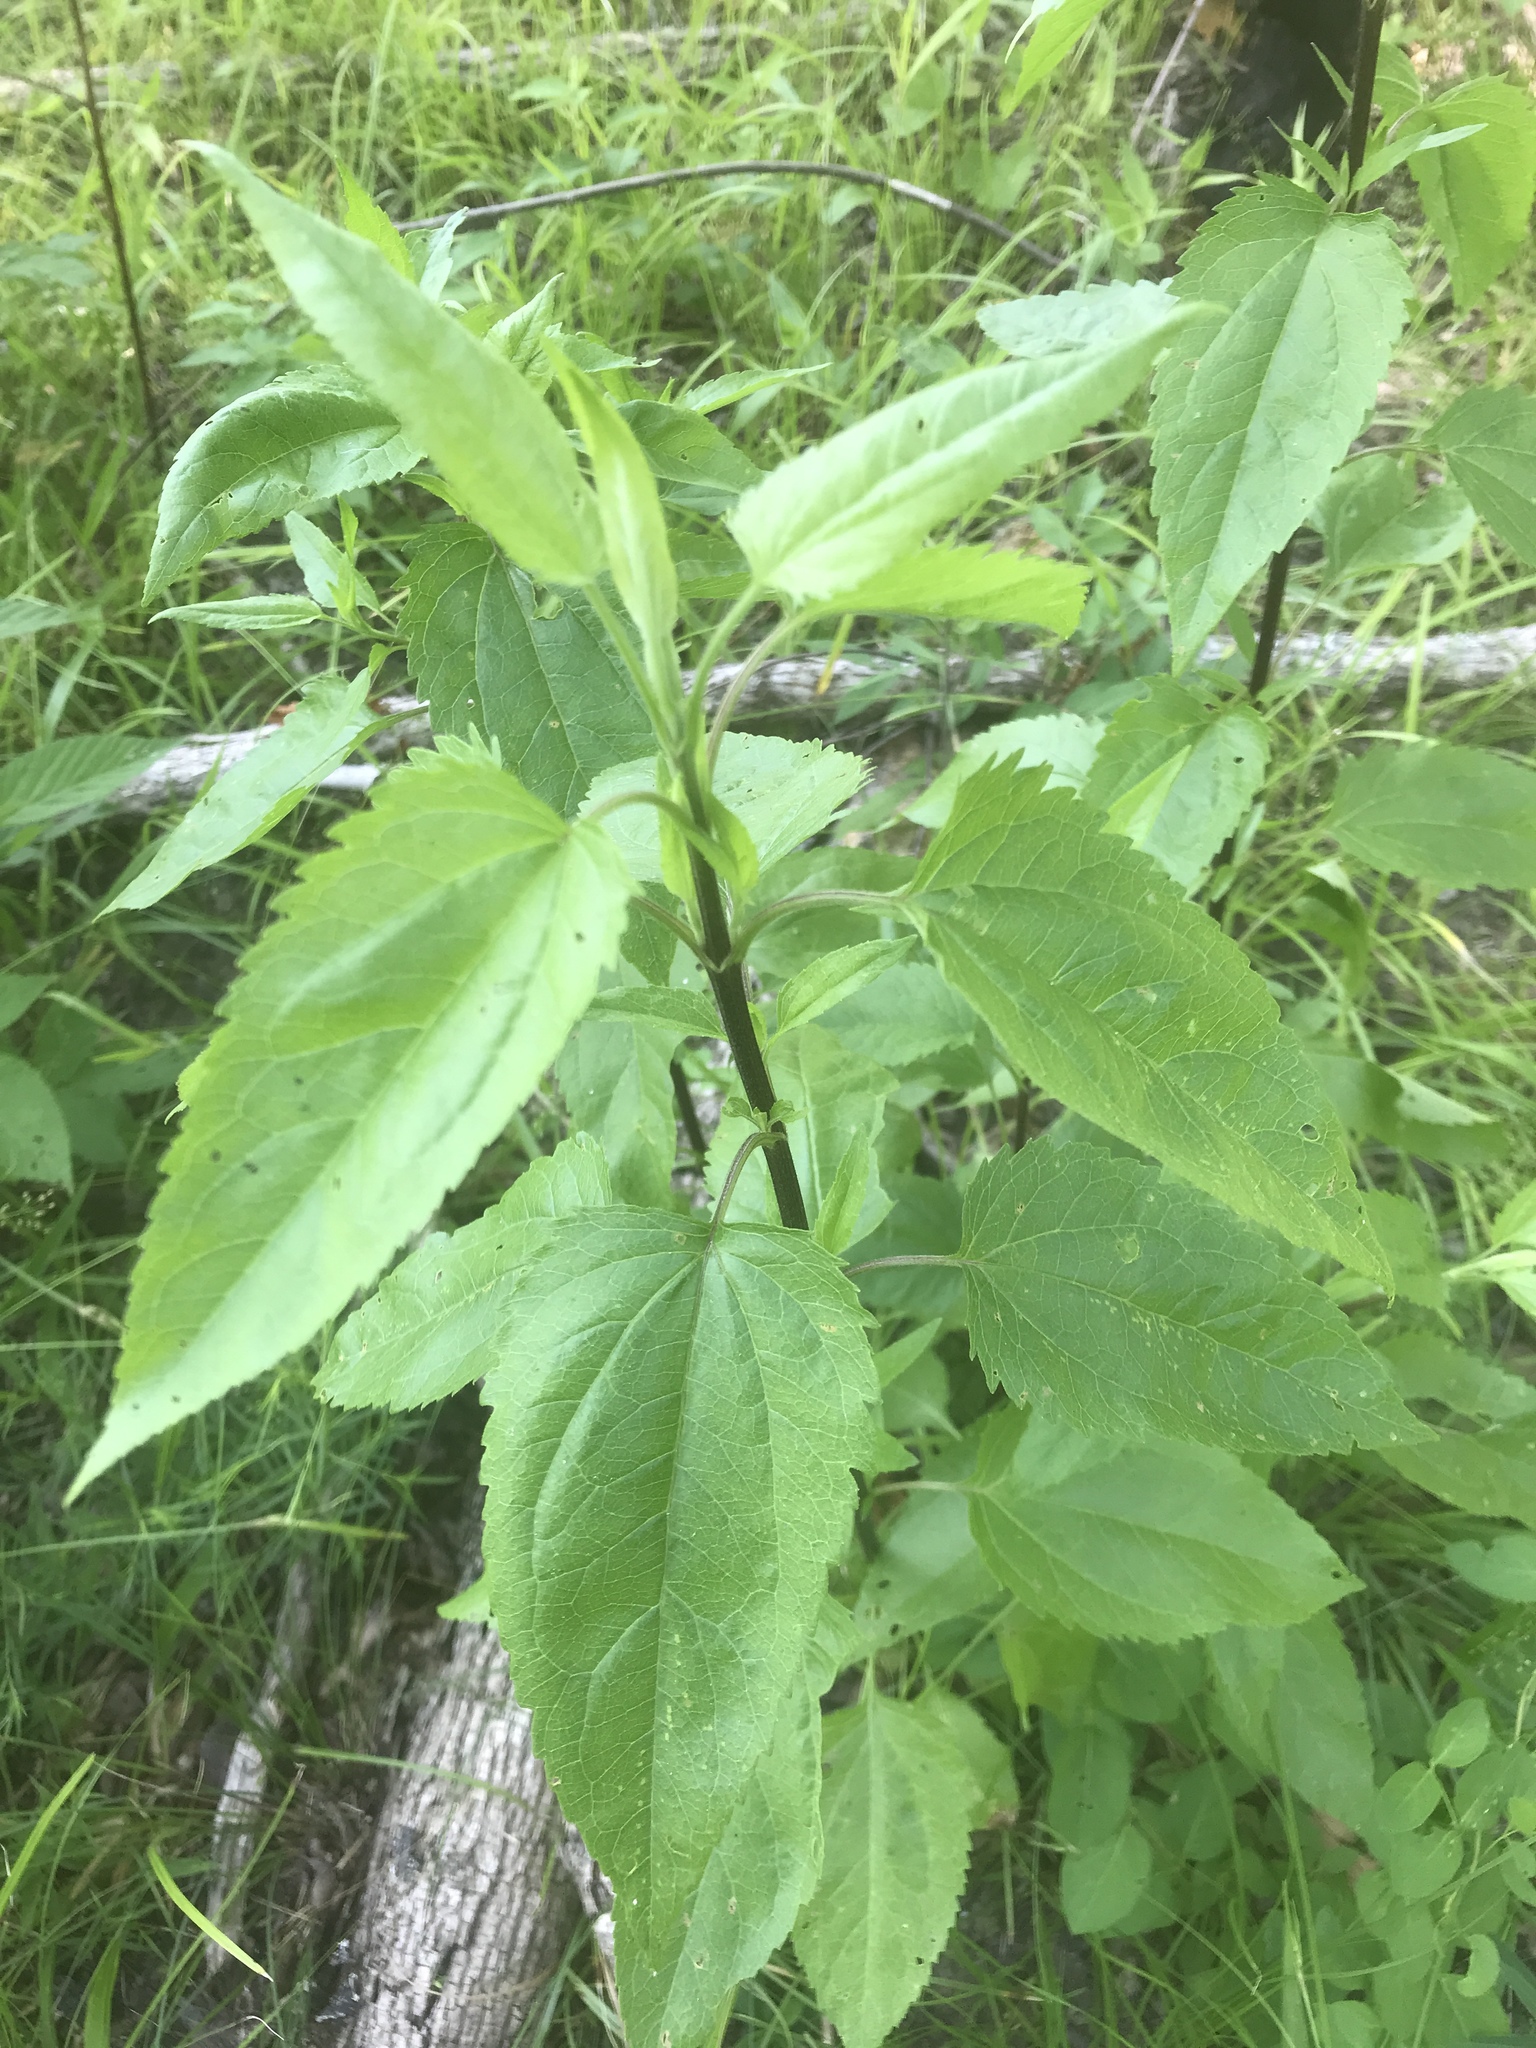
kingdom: Plantae
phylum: Tracheophyta
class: Magnoliopsida
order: Asterales
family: Asteraceae
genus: Eupatorium
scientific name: Eupatorium serotinum
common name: Late boneset
